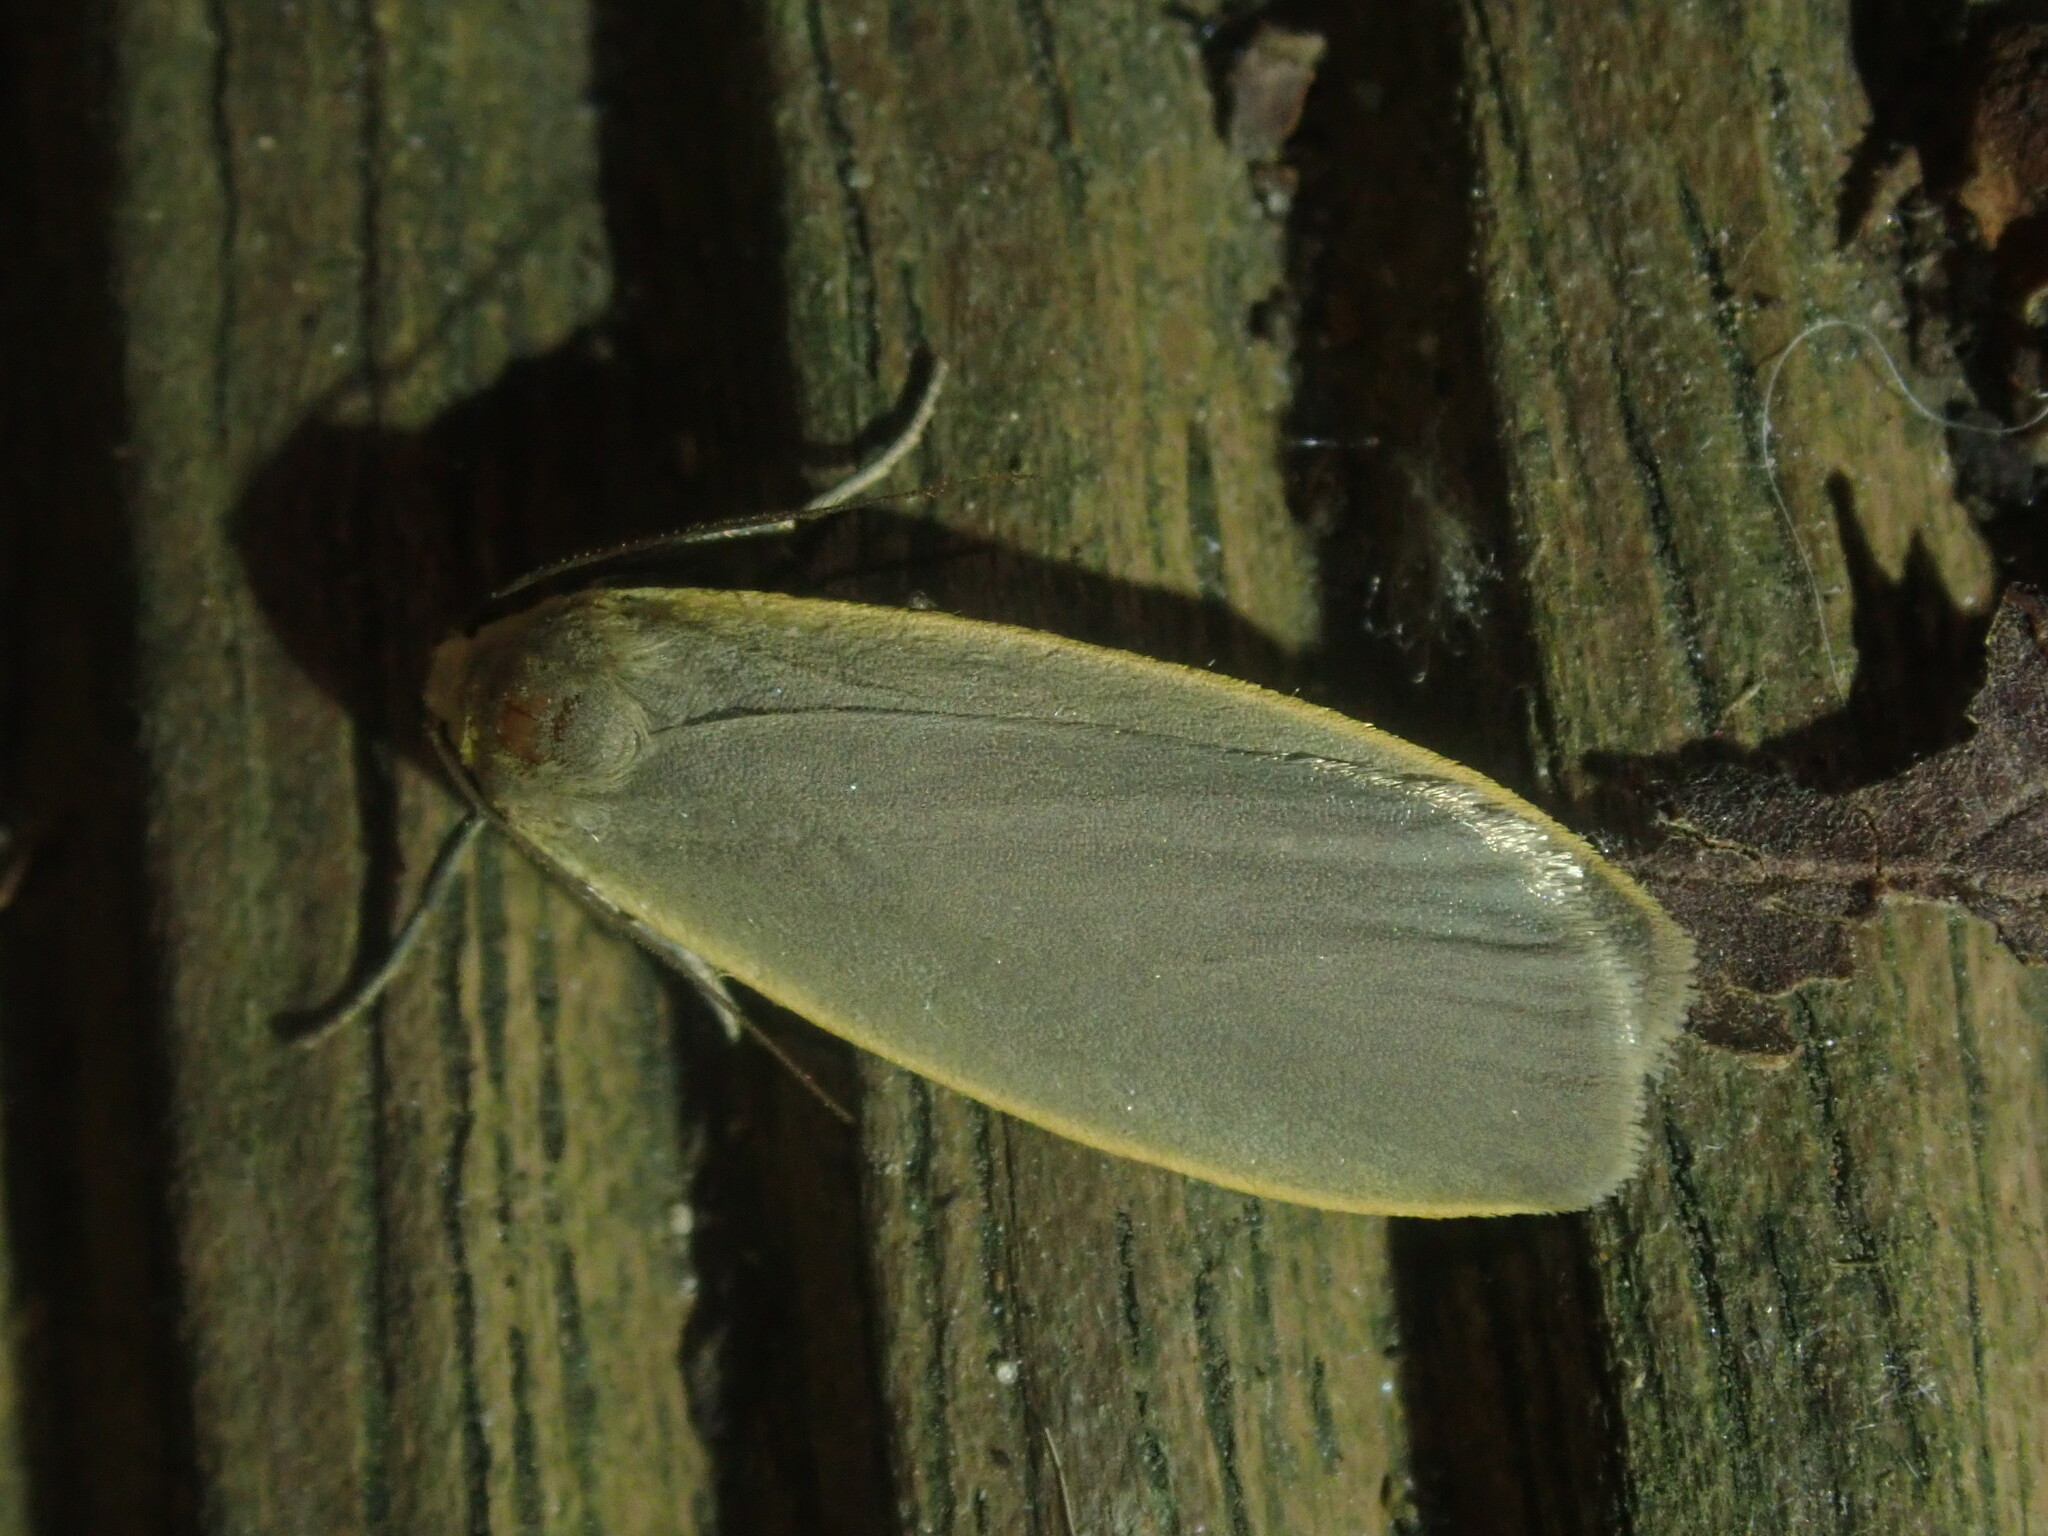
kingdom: Animalia
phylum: Arthropoda
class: Insecta
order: Lepidoptera
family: Erebidae
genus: Collita
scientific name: Collita griseola
